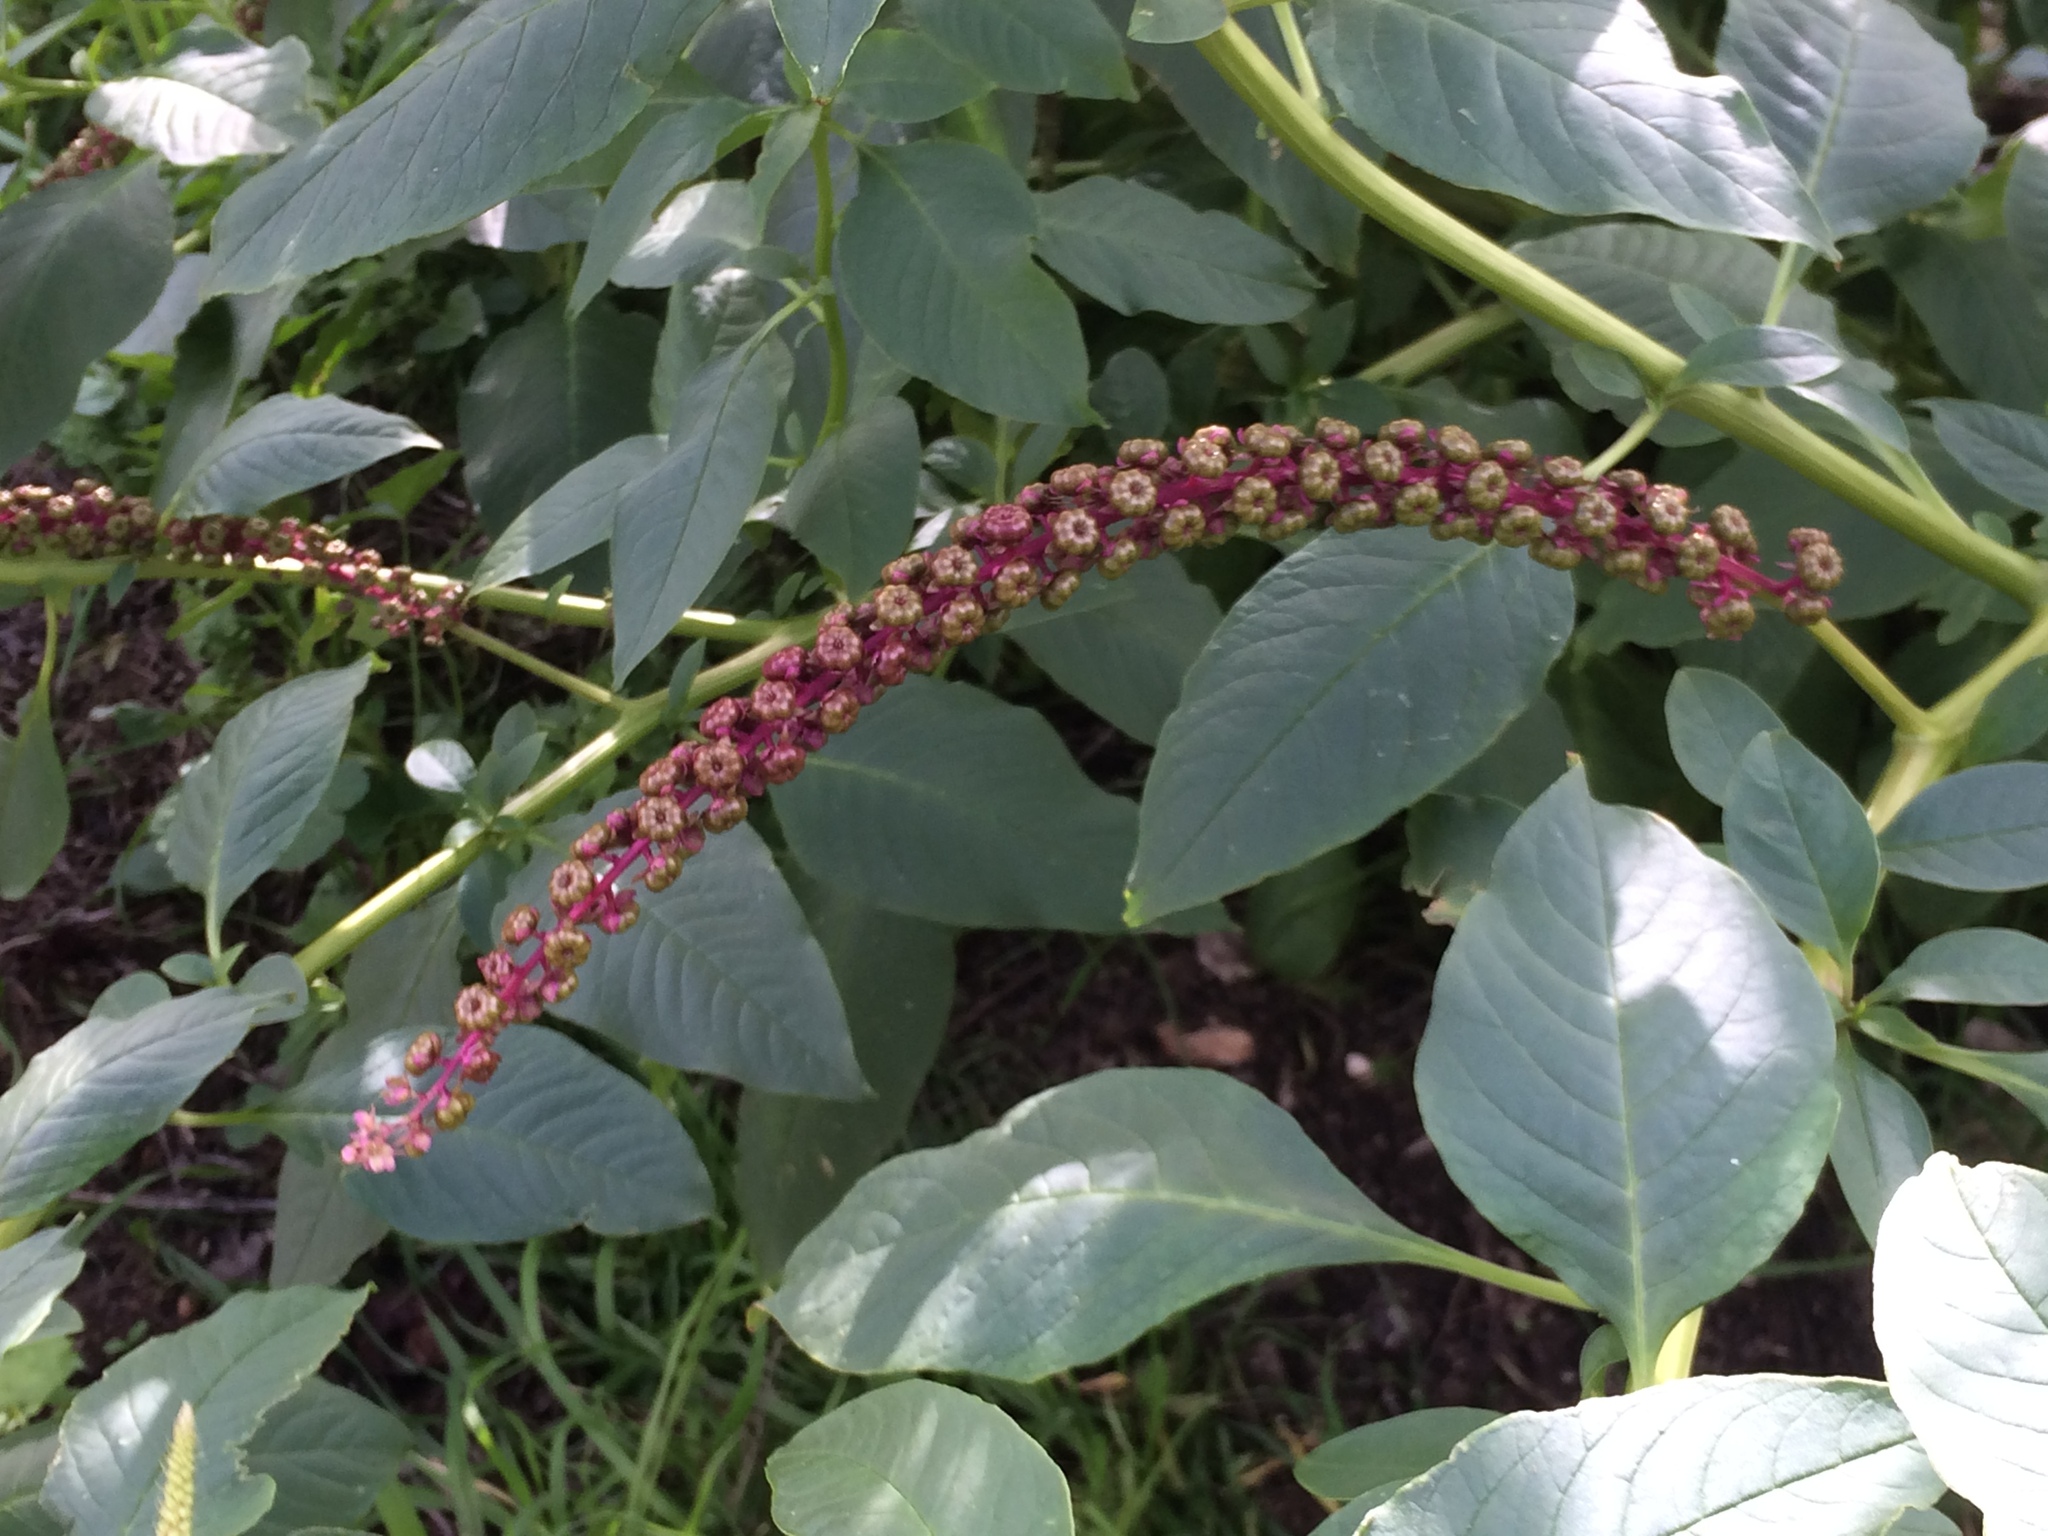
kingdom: Plantae
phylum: Tracheophyta
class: Magnoliopsida
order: Caryophyllales
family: Phytolaccaceae
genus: Phytolacca
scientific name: Phytolacca heterotepala
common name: Mexican pokeweed
